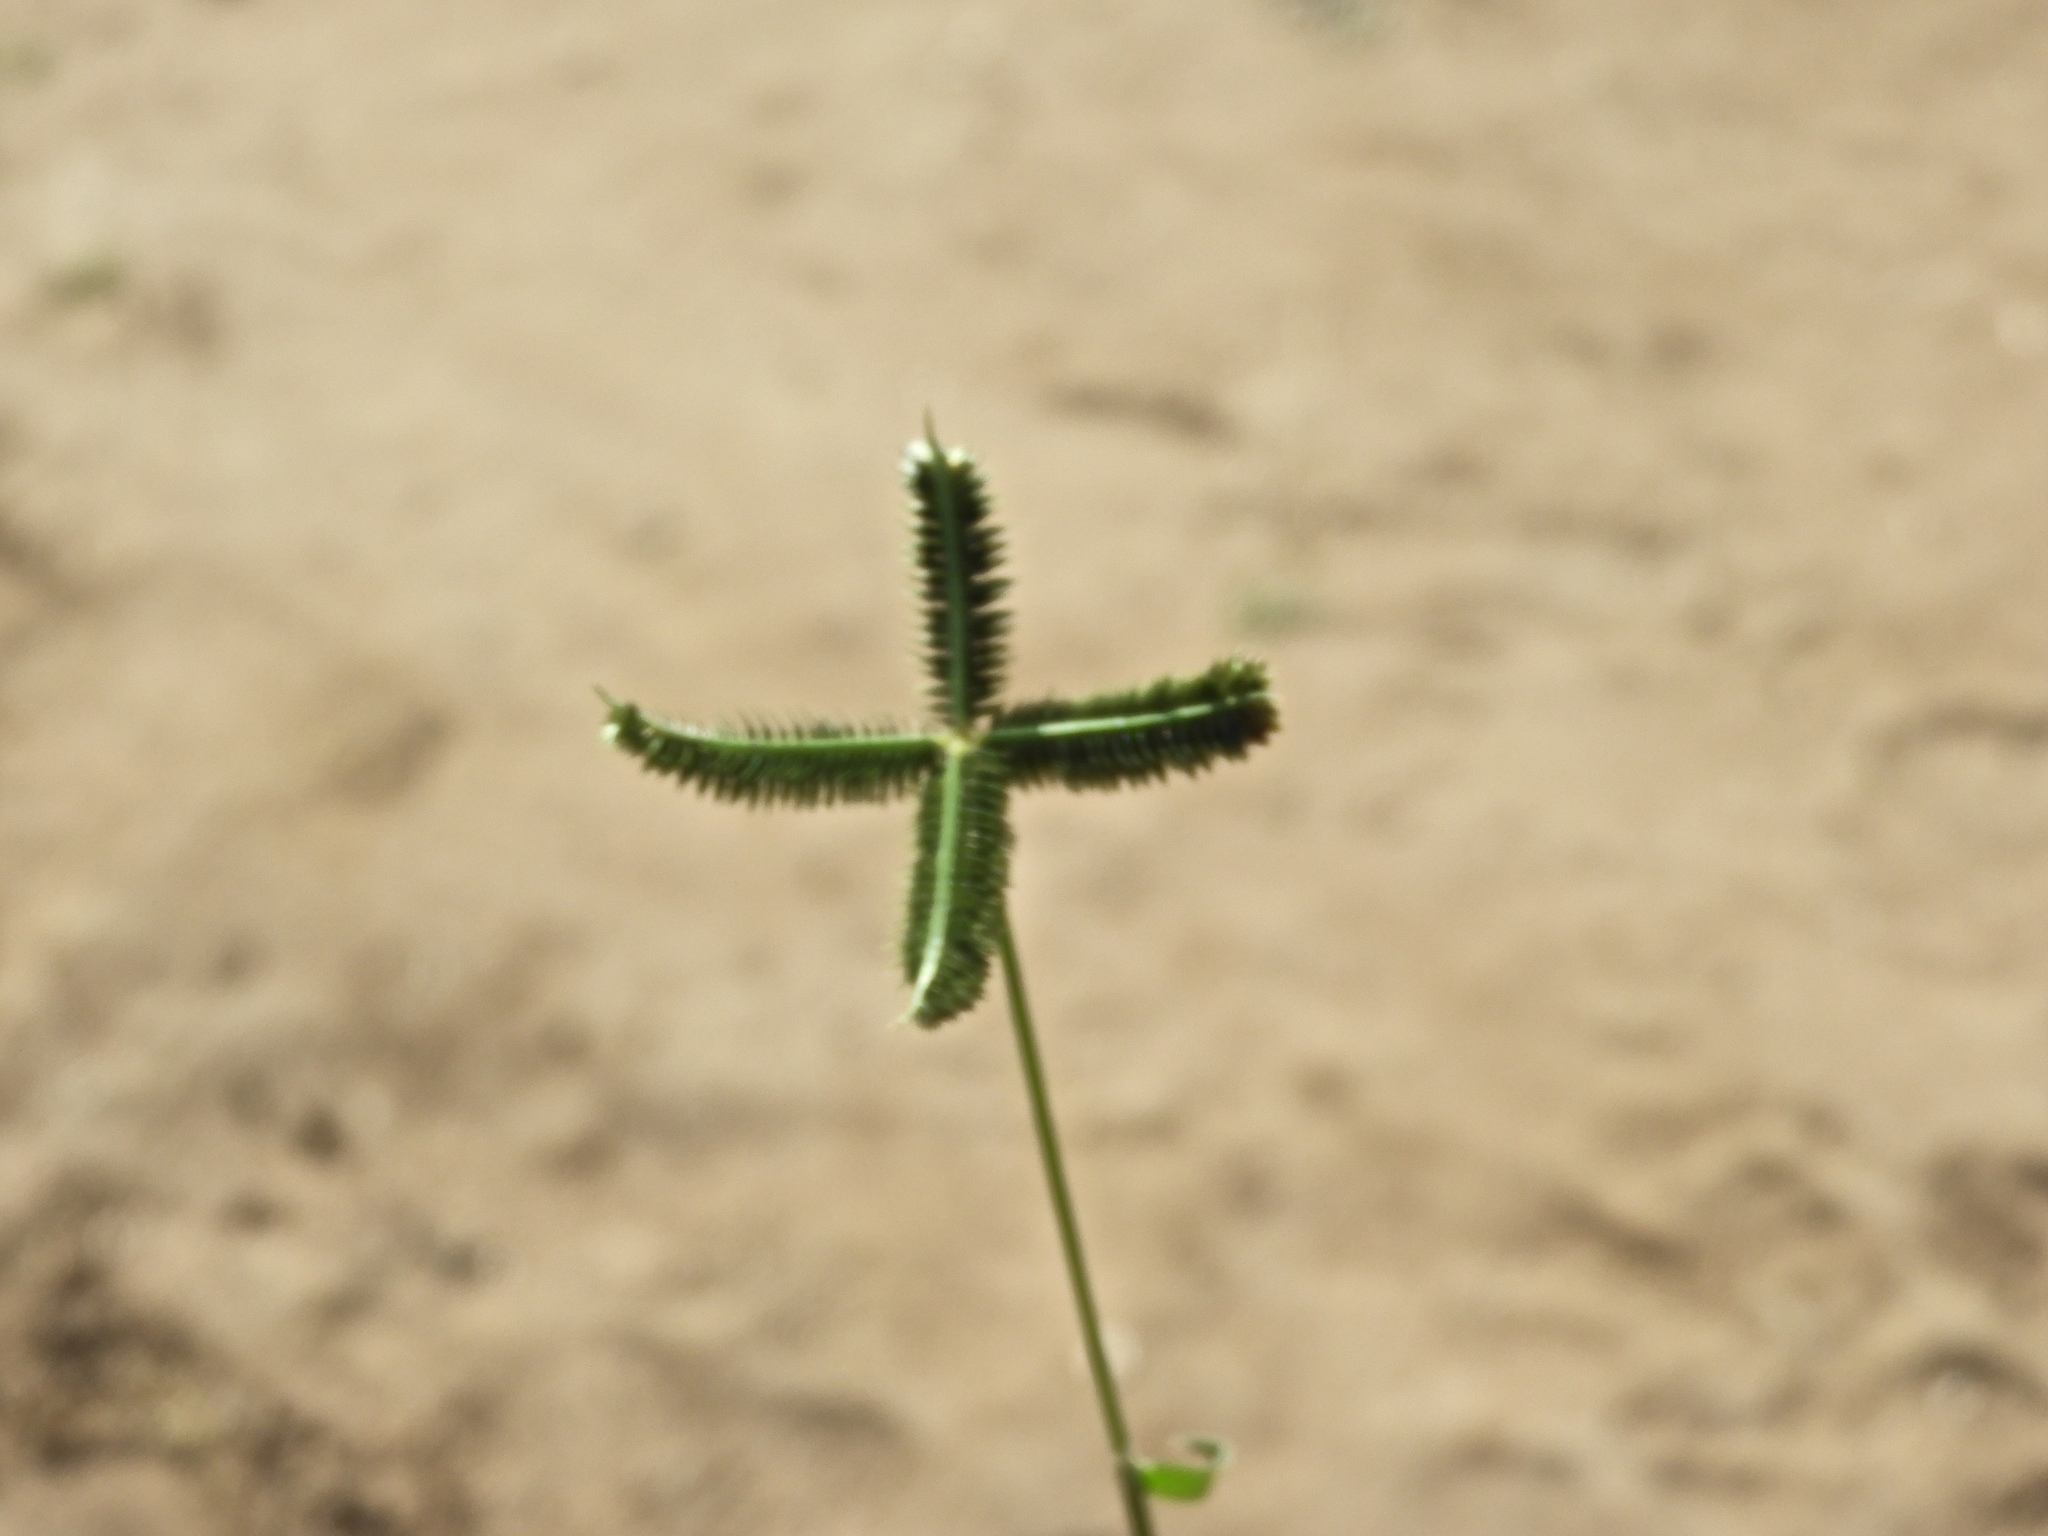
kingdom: Plantae
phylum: Tracheophyta
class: Liliopsida
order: Poales
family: Poaceae
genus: Dactyloctenium
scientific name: Dactyloctenium aegyptium
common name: Egyptian grass
